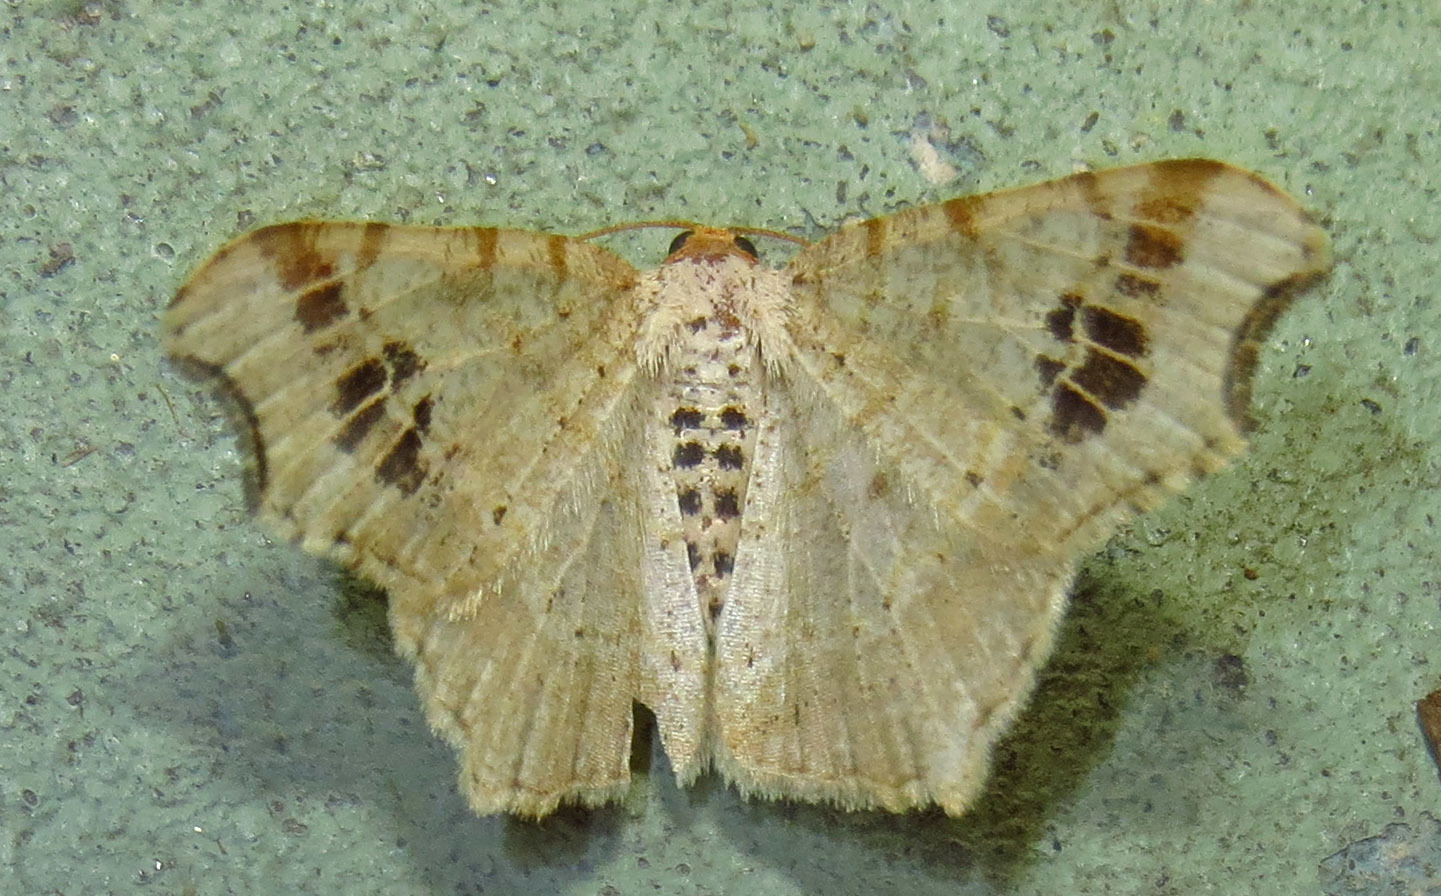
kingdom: Animalia
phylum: Arthropoda
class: Insecta
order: Lepidoptera
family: Geometridae
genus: Macaria
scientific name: Macaria aemulataria
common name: Common angle
